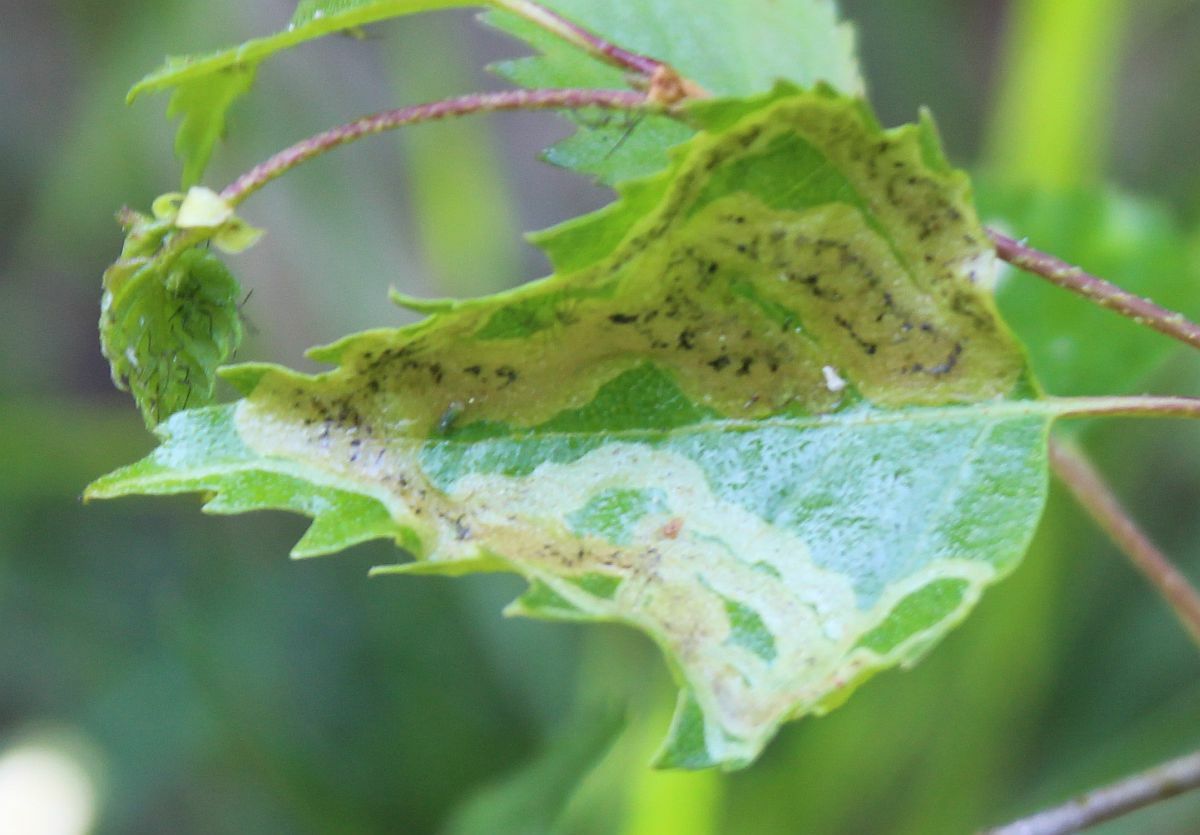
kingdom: Animalia
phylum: Arthropoda
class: Insecta
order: Diptera
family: Agromyzidae
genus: Agromyza
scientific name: Agromyza alnibetulae
